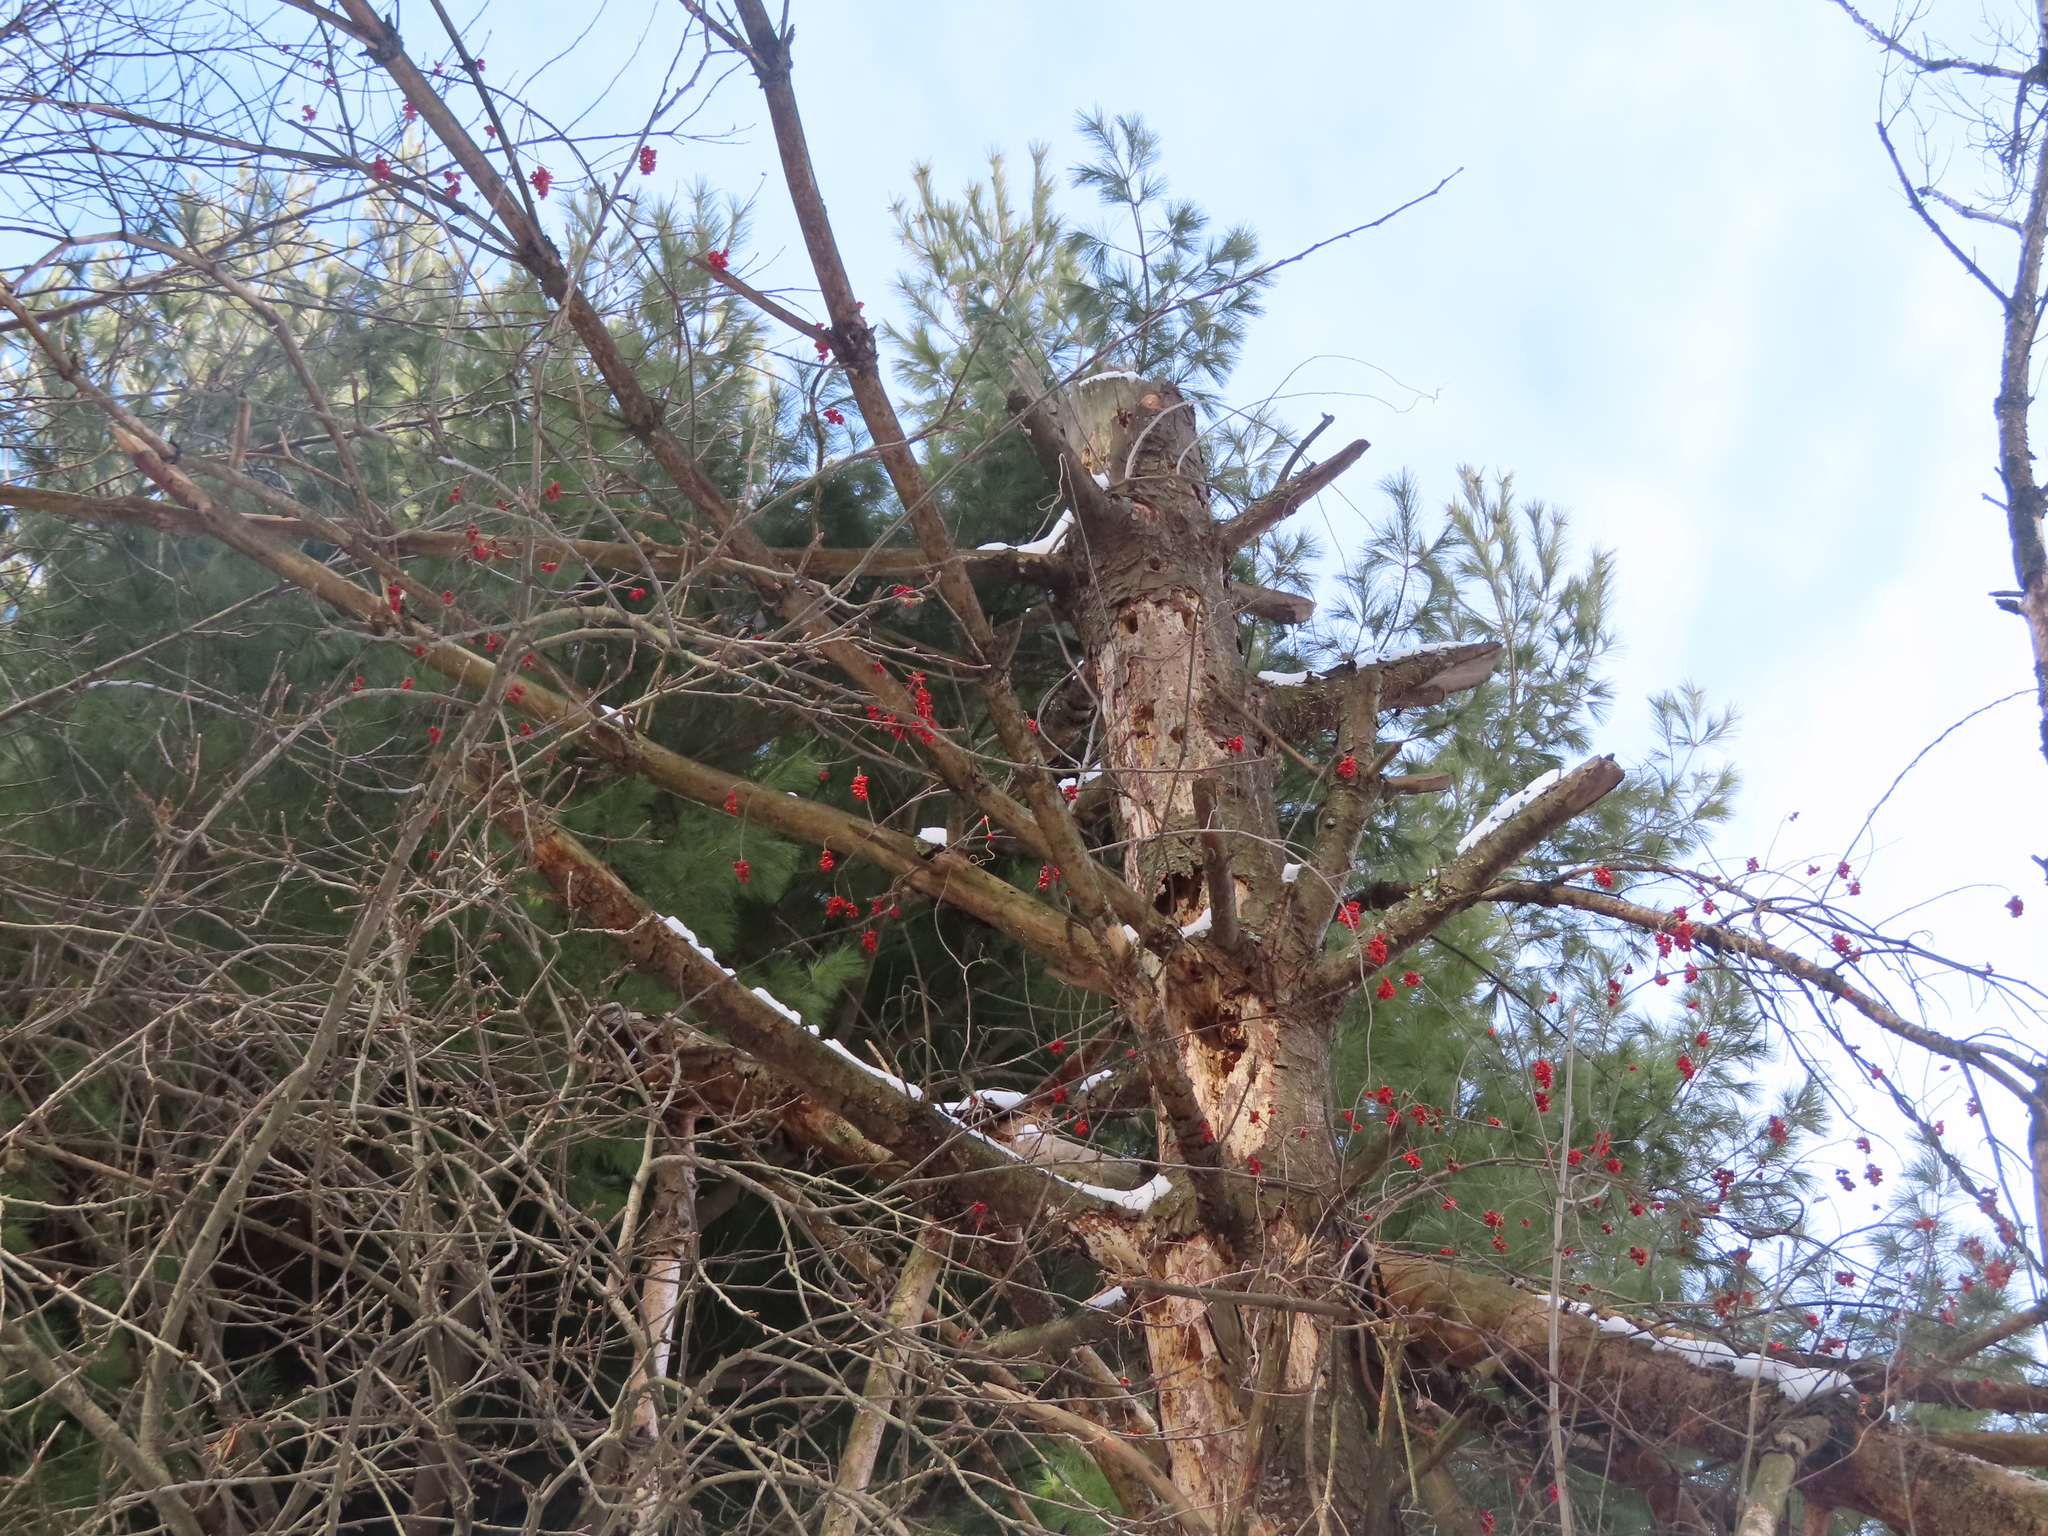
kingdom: Plantae
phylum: Tracheophyta
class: Magnoliopsida
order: Celastrales
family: Celastraceae
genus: Celastrus
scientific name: Celastrus scandens
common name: American bittersweet
